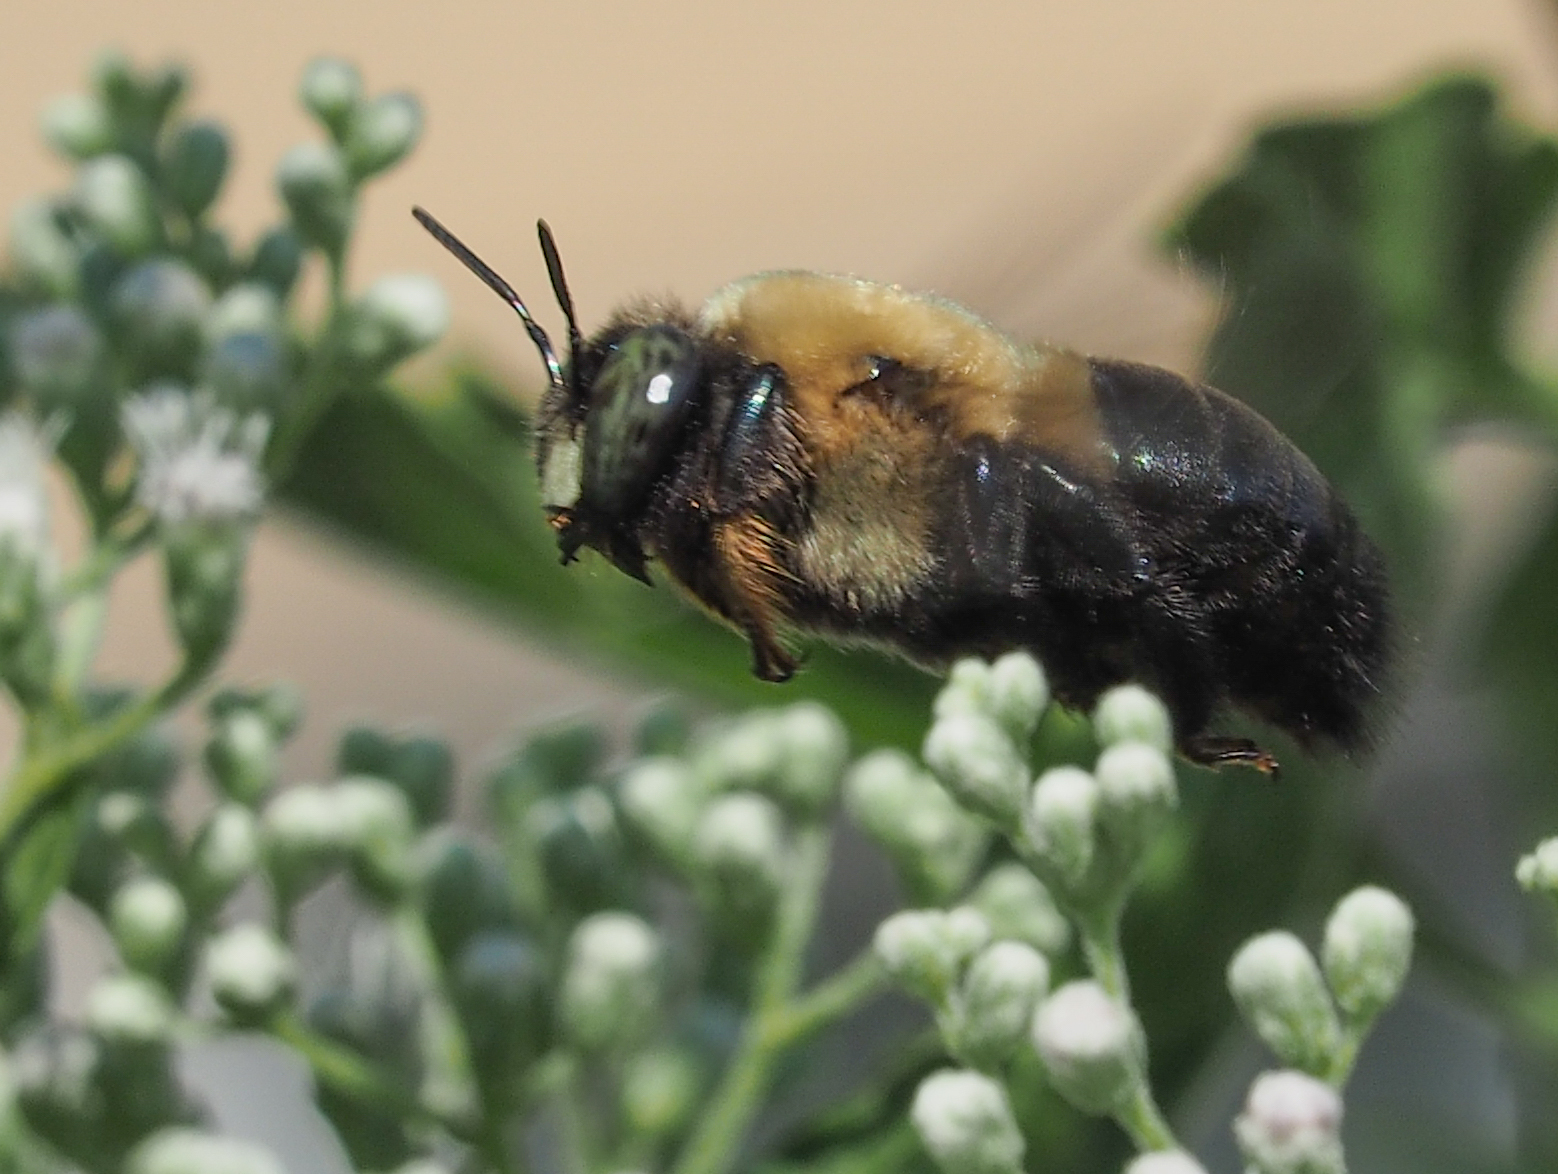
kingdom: Animalia
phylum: Arthropoda
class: Insecta
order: Hymenoptera
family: Apidae
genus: Xylocopa
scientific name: Xylocopa virginica
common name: Carpenter bee
